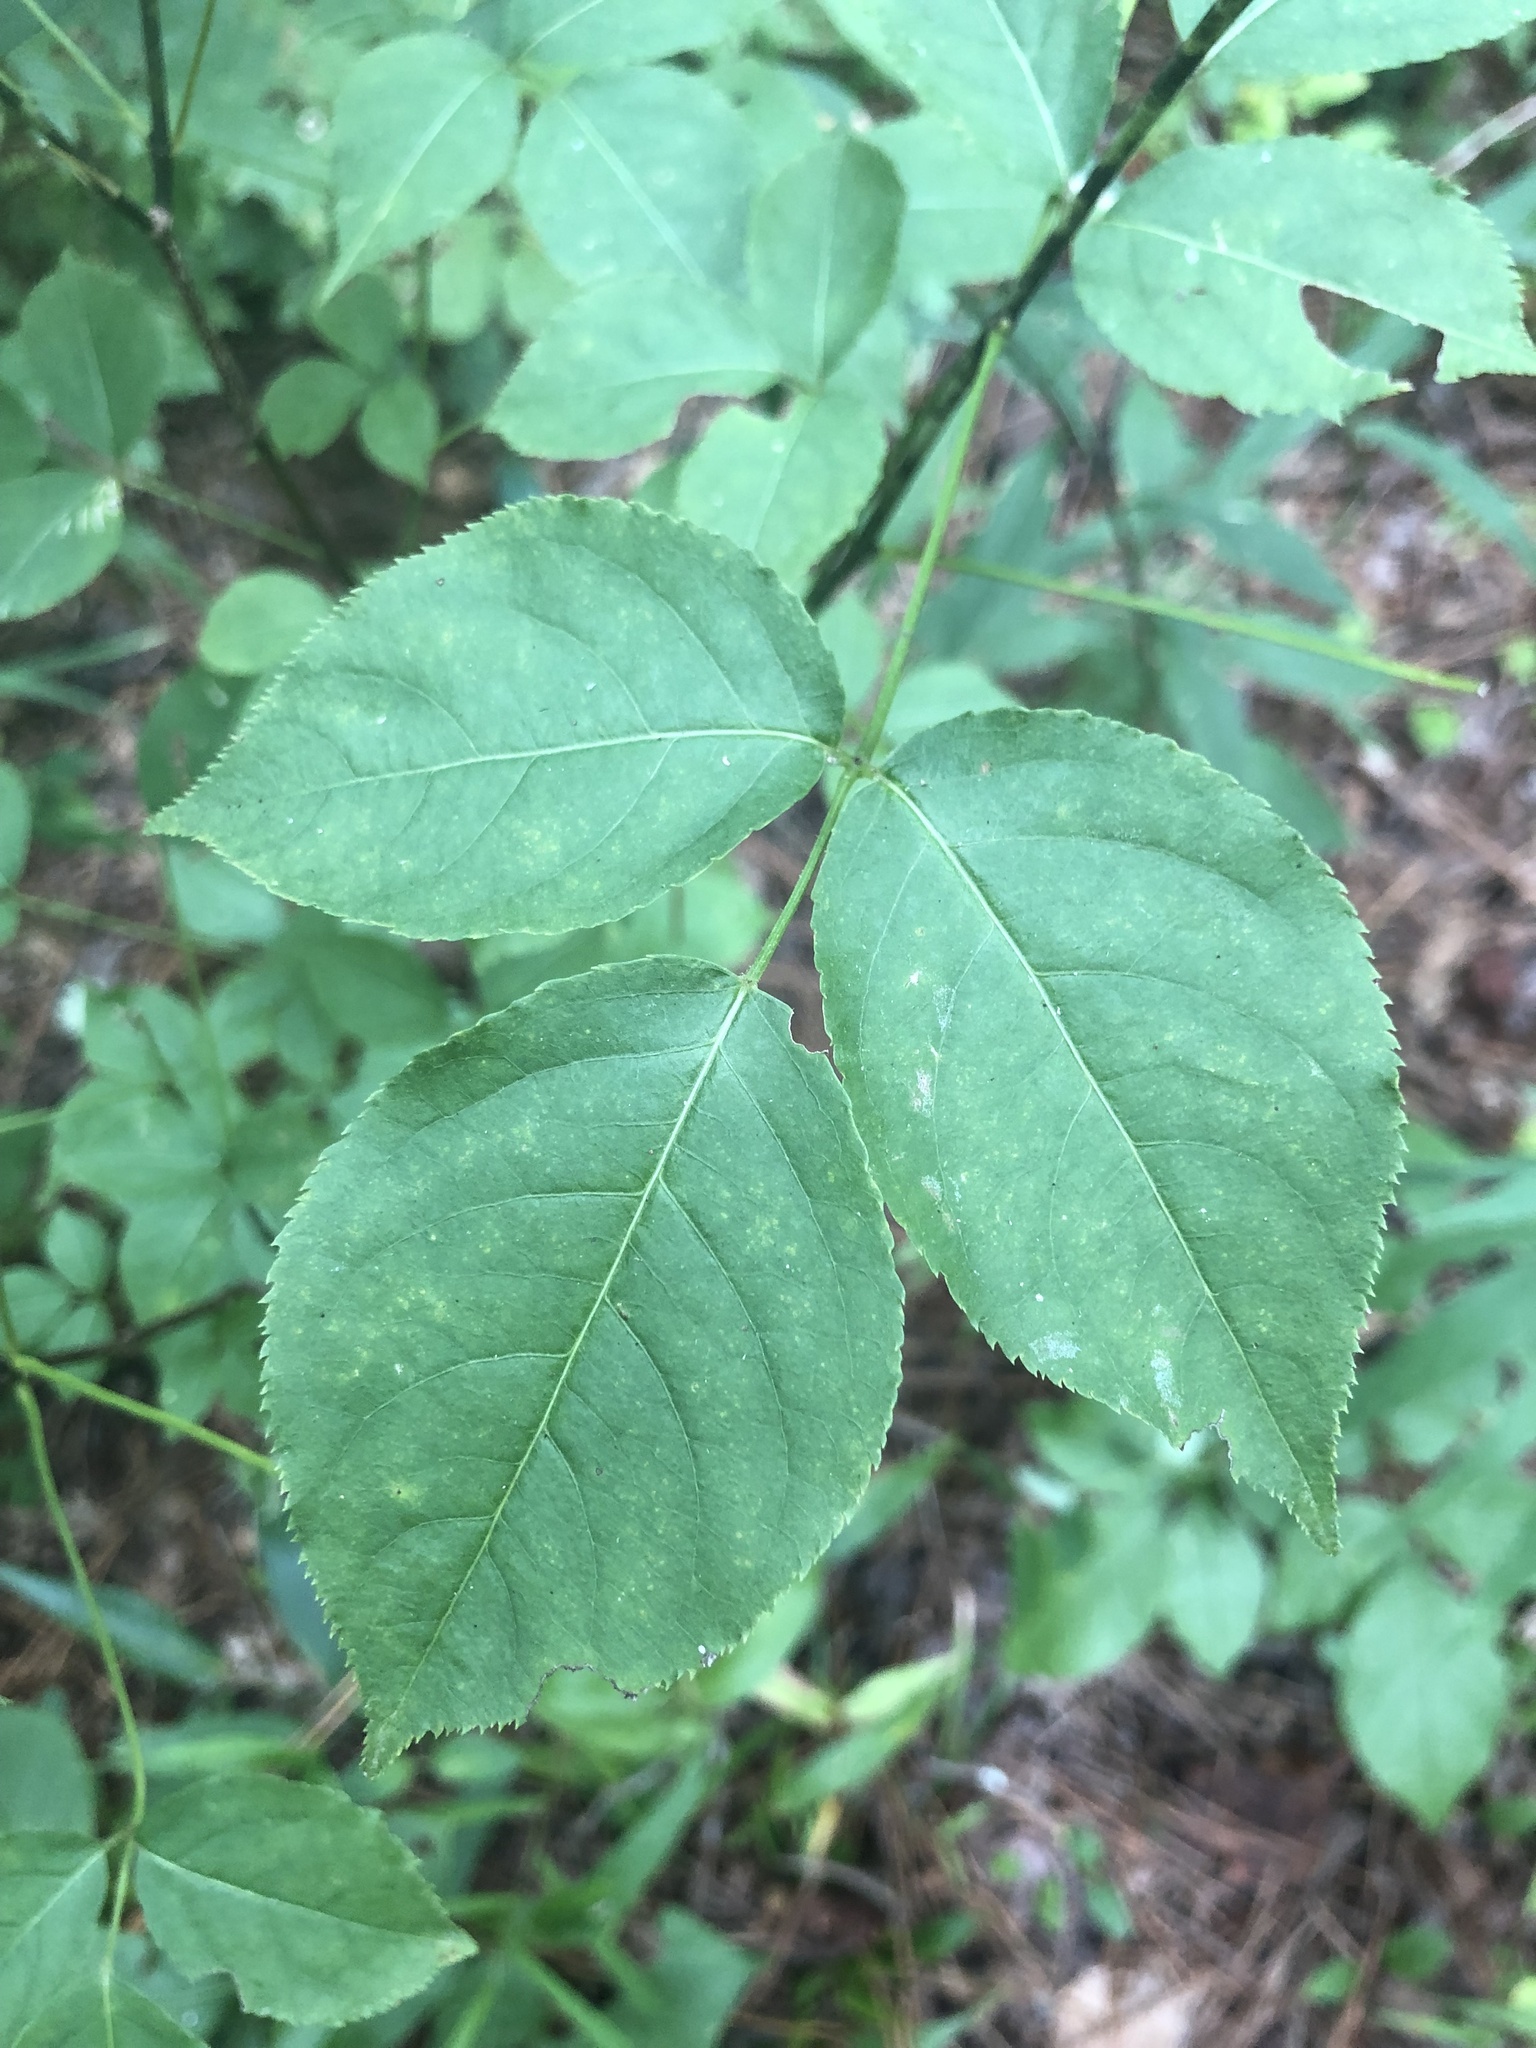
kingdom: Plantae
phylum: Tracheophyta
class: Magnoliopsida
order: Crossosomatales
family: Staphyleaceae
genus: Staphylea
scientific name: Staphylea trifolia
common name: American bladdernut
